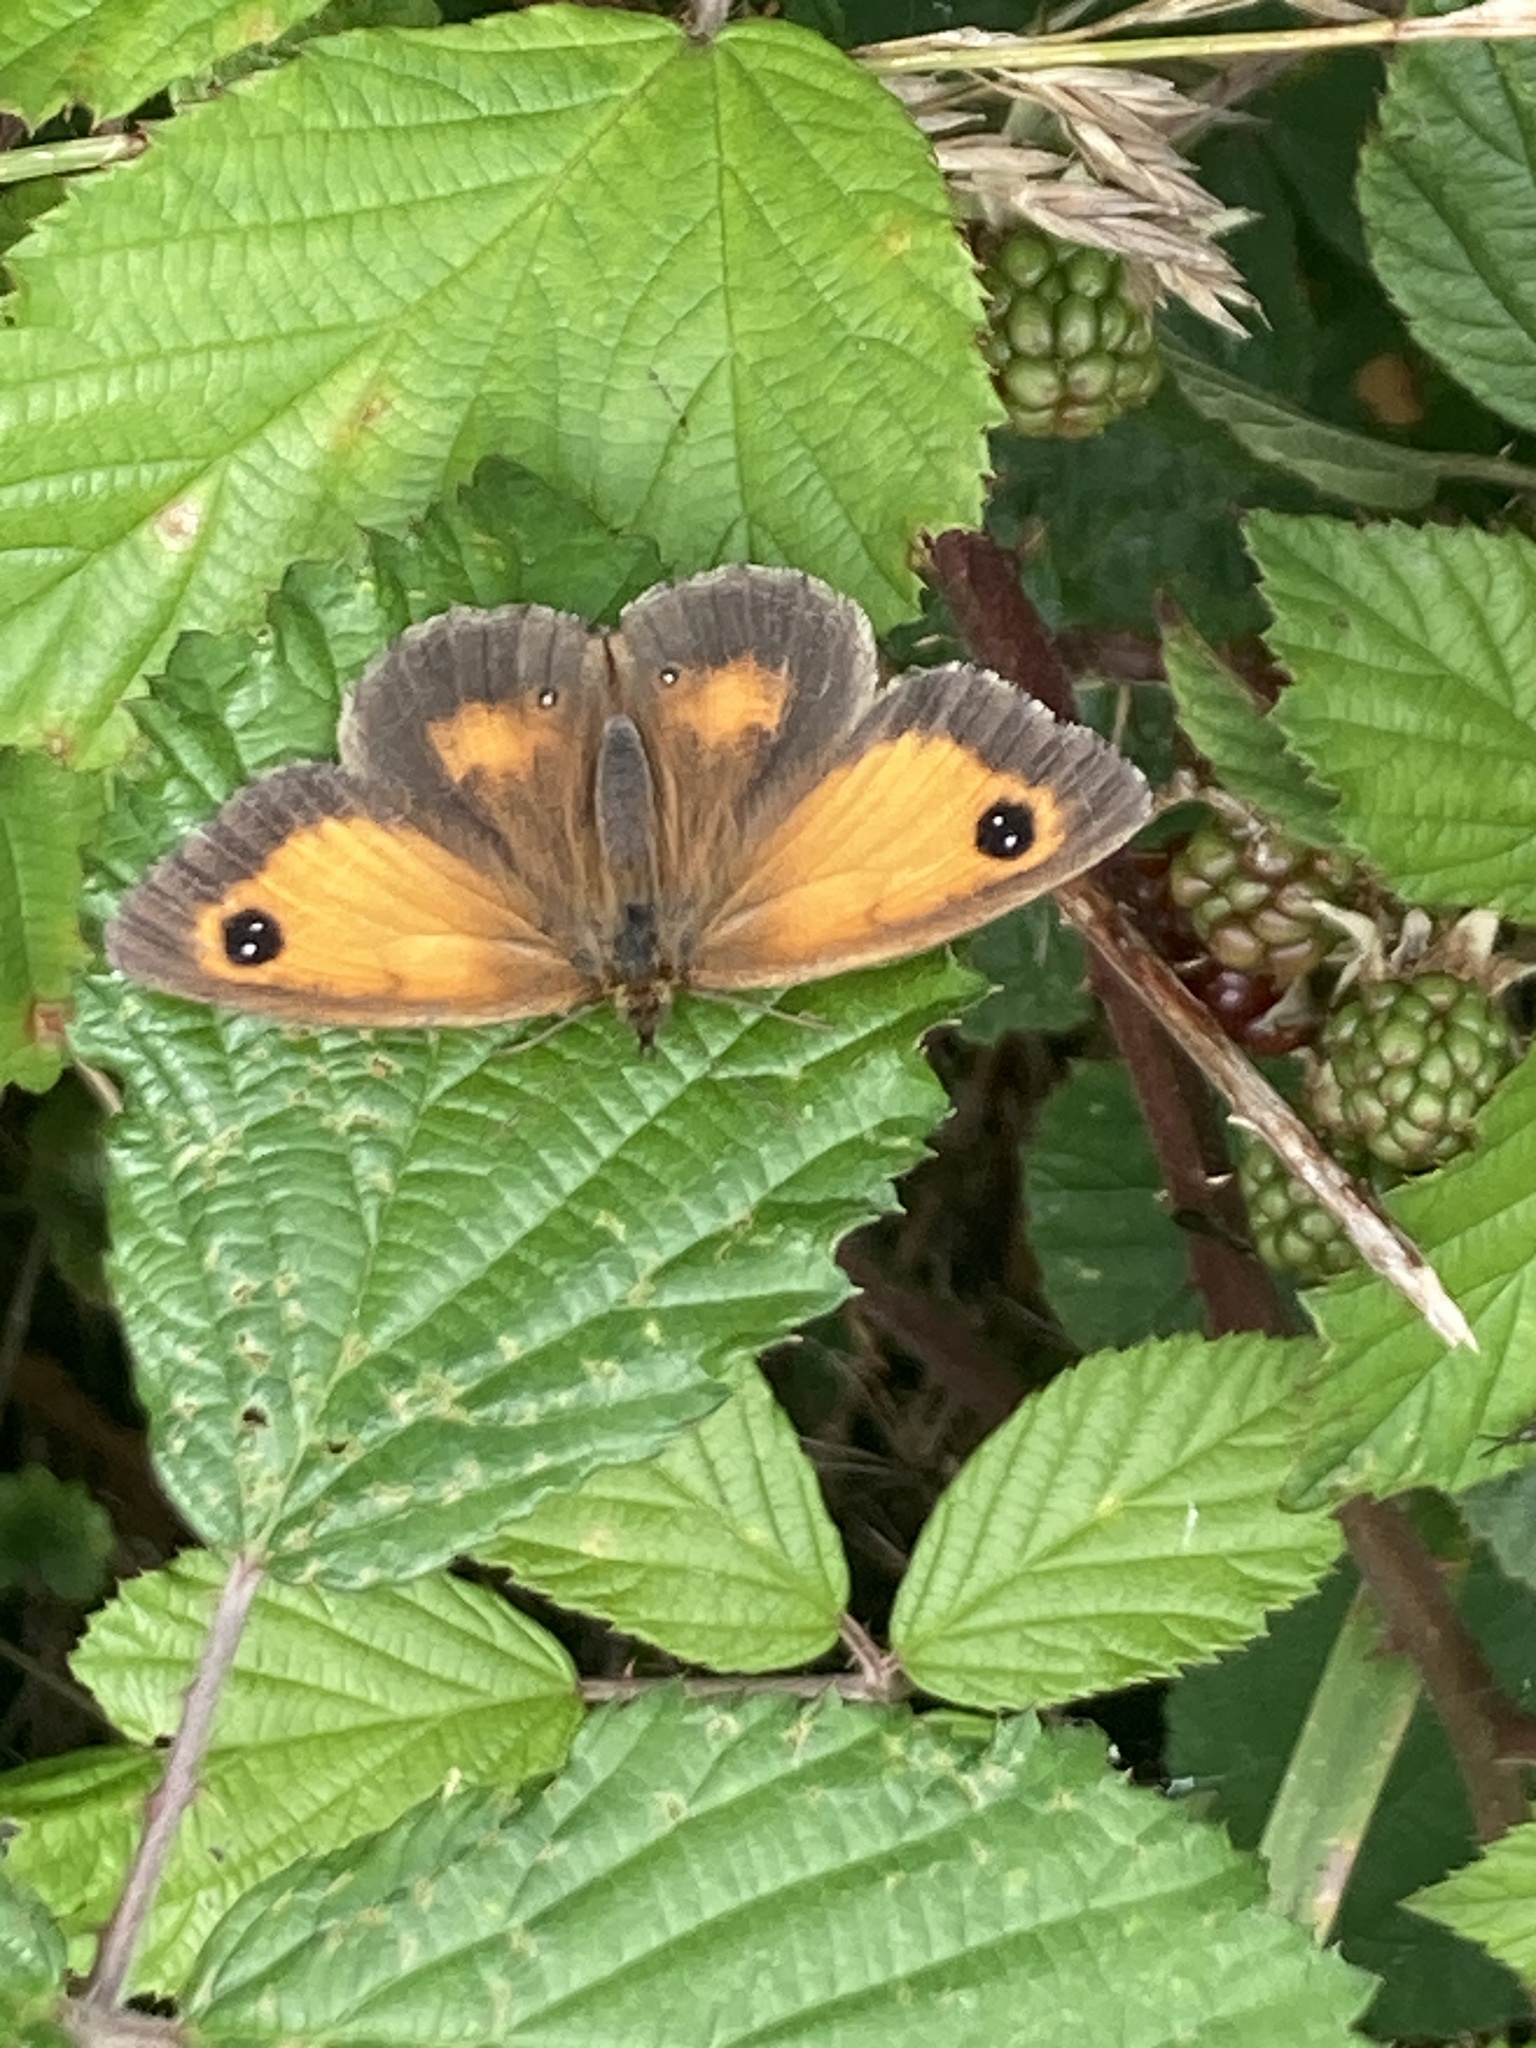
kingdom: Animalia
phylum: Arthropoda
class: Insecta
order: Lepidoptera
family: Nymphalidae
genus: Pyronia
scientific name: Pyronia tithonus
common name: Gatekeeper
